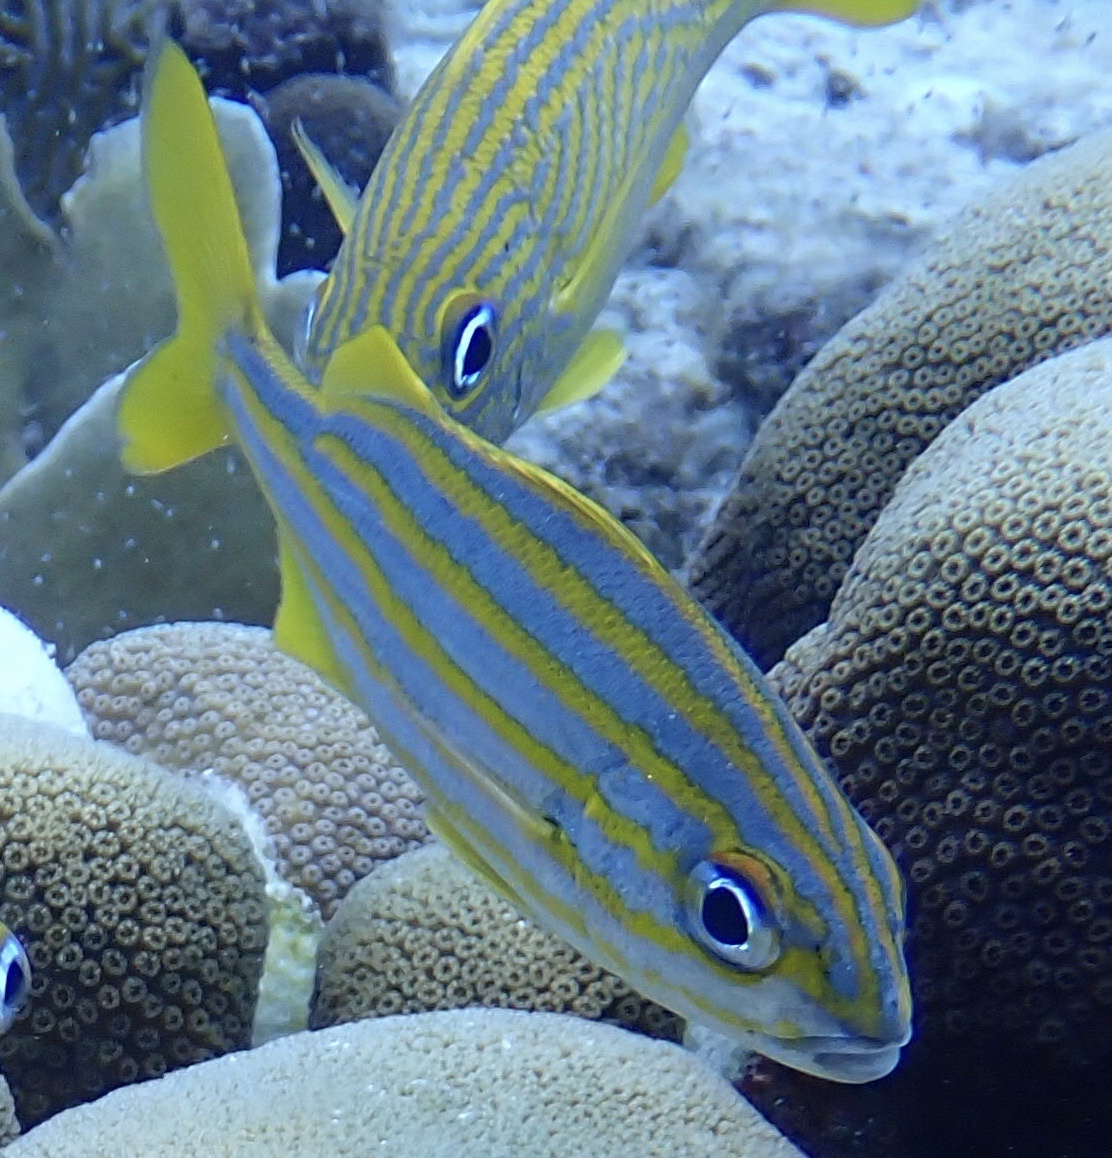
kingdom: Animalia
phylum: Chordata
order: Perciformes
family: Haemulidae
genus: Haemulon
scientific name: Haemulon chrysargyreum
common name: Smallmouth grunt
